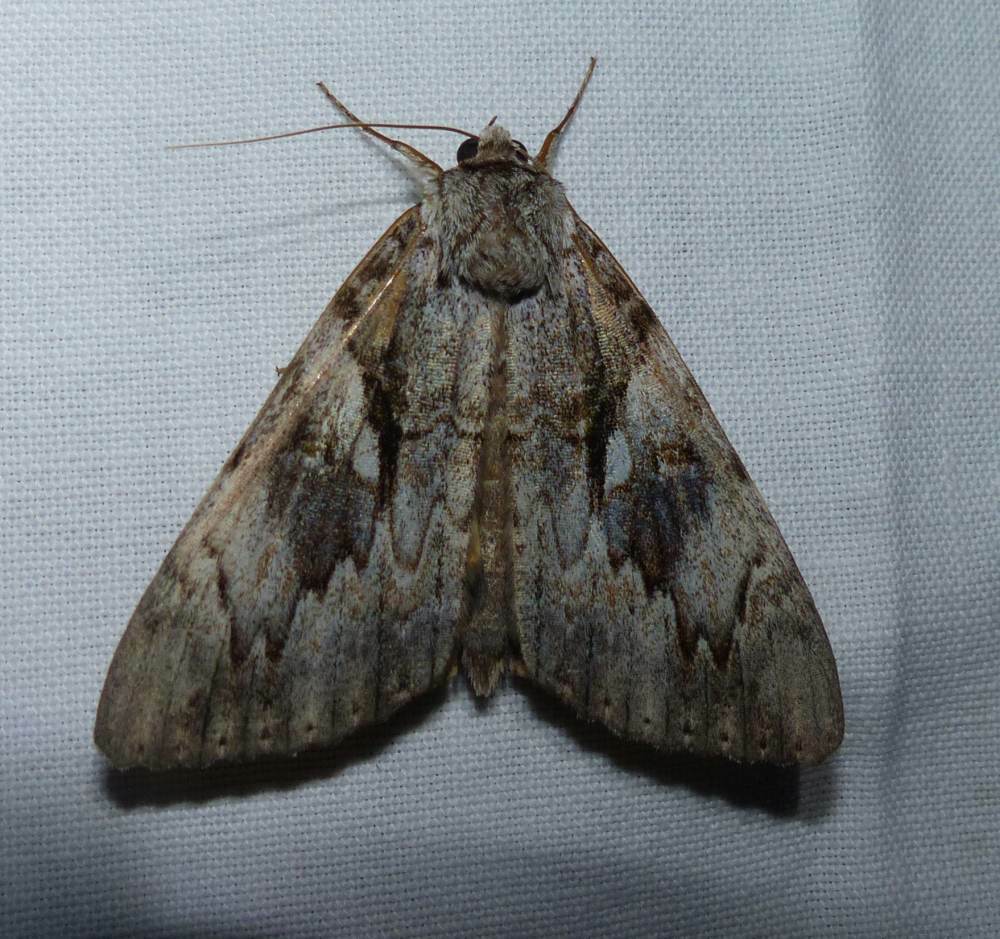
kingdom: Animalia
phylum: Arthropoda
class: Insecta
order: Lepidoptera
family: Erebidae
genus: Catocala
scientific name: Catocala cerogama
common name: Yellow banded underwing
